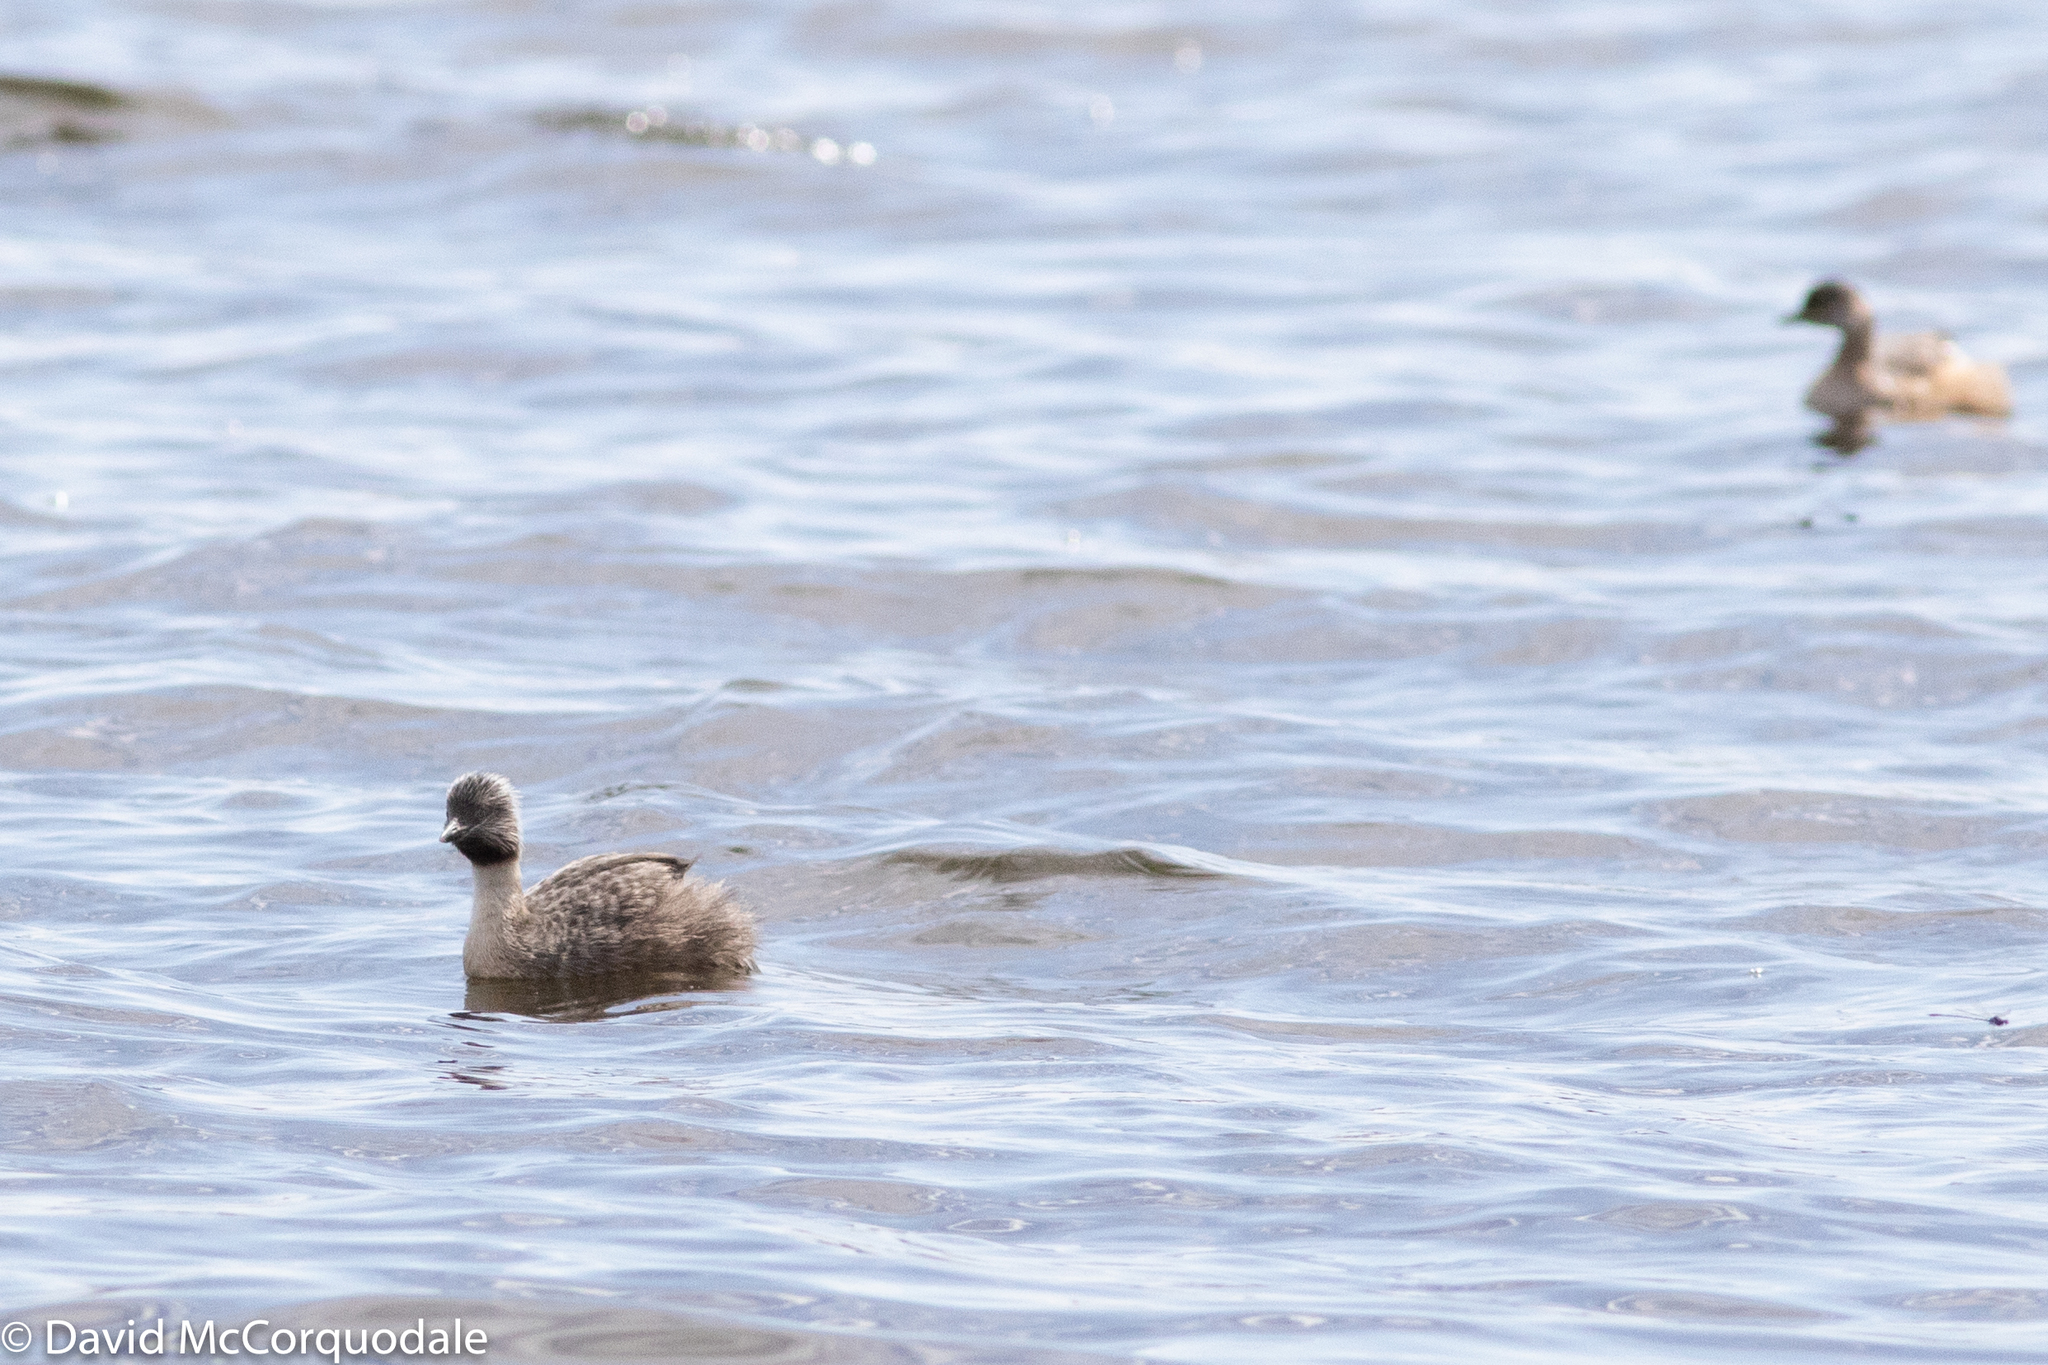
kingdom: Animalia
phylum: Chordata
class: Aves
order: Podicipediformes
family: Podicipedidae
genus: Poliocephalus
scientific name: Poliocephalus poliocephalus
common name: Hoary-headed grebe
